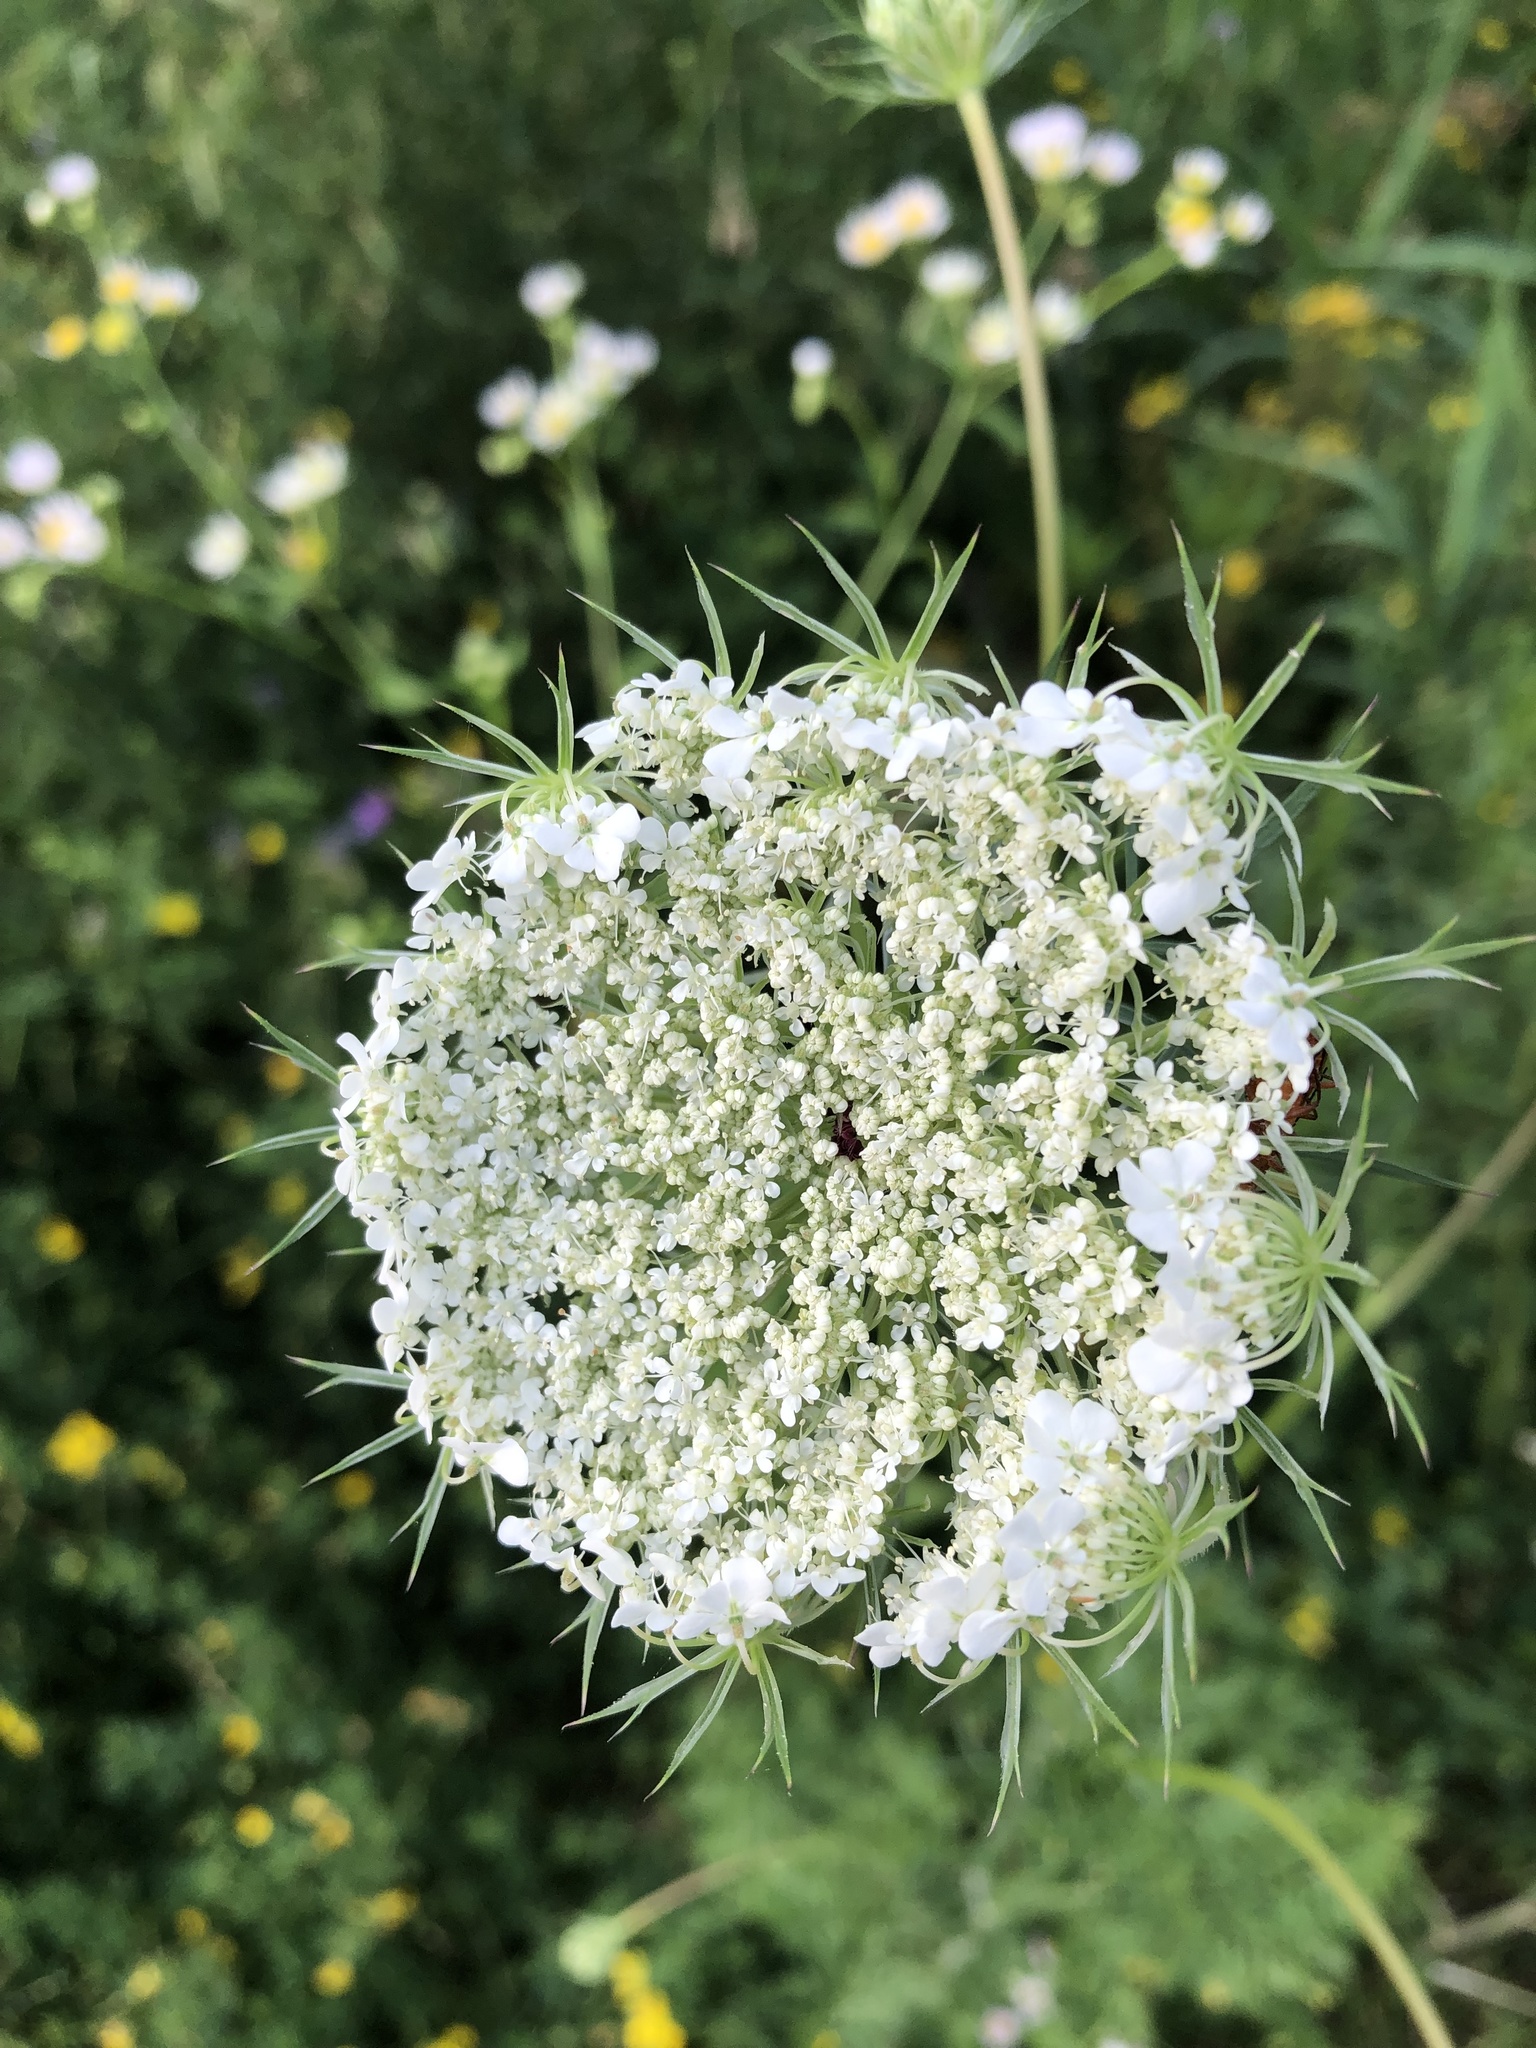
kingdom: Plantae
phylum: Tracheophyta
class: Magnoliopsida
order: Apiales
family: Apiaceae
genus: Daucus
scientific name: Daucus carota
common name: Wild carrot
